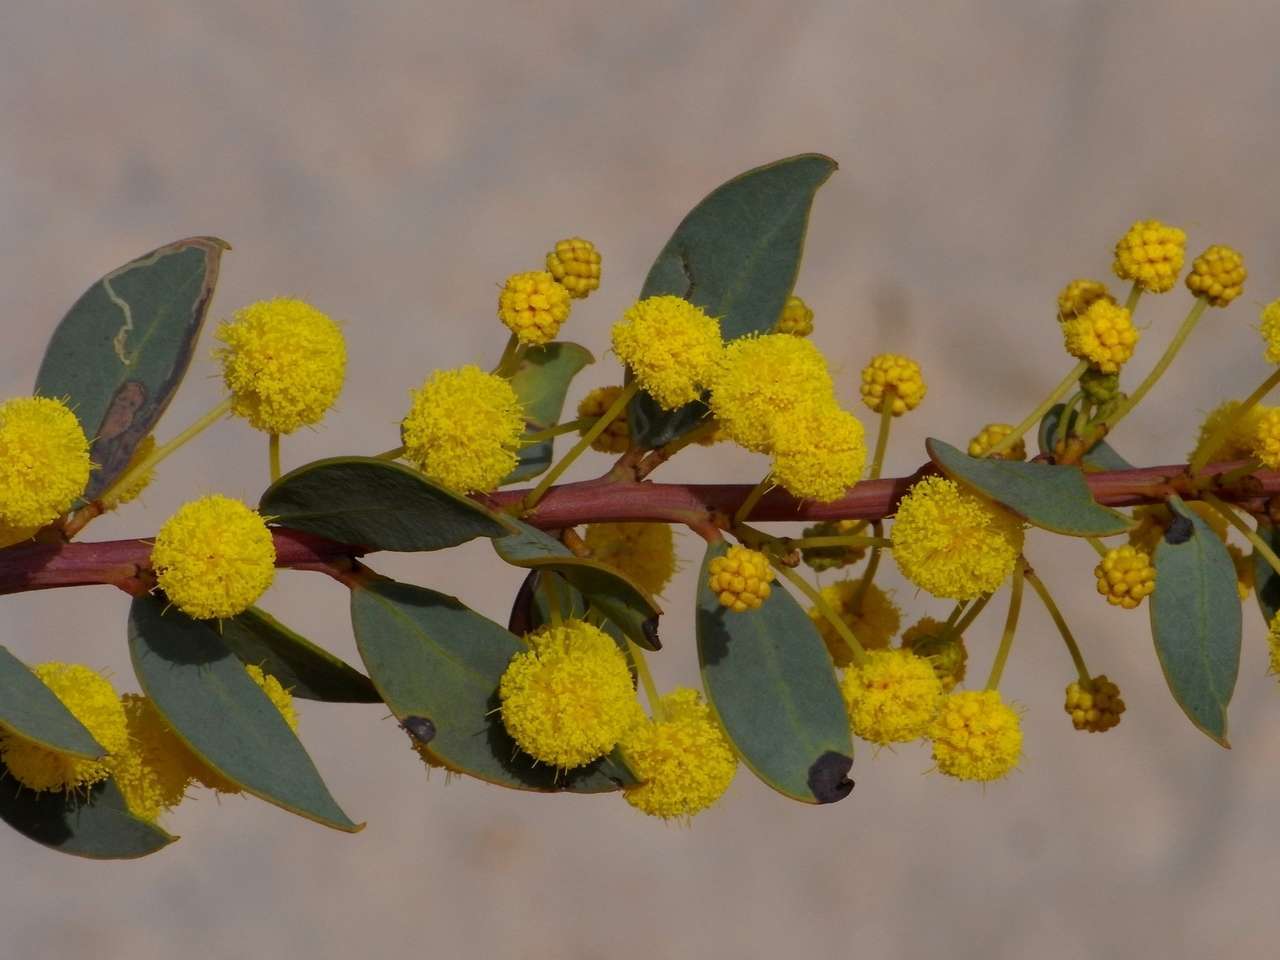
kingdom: Plantae
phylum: Tracheophyta
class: Magnoliopsida
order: Fabales
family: Fabaceae
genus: Acacia
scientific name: Acacia brachybotrya
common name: Grey mulga
